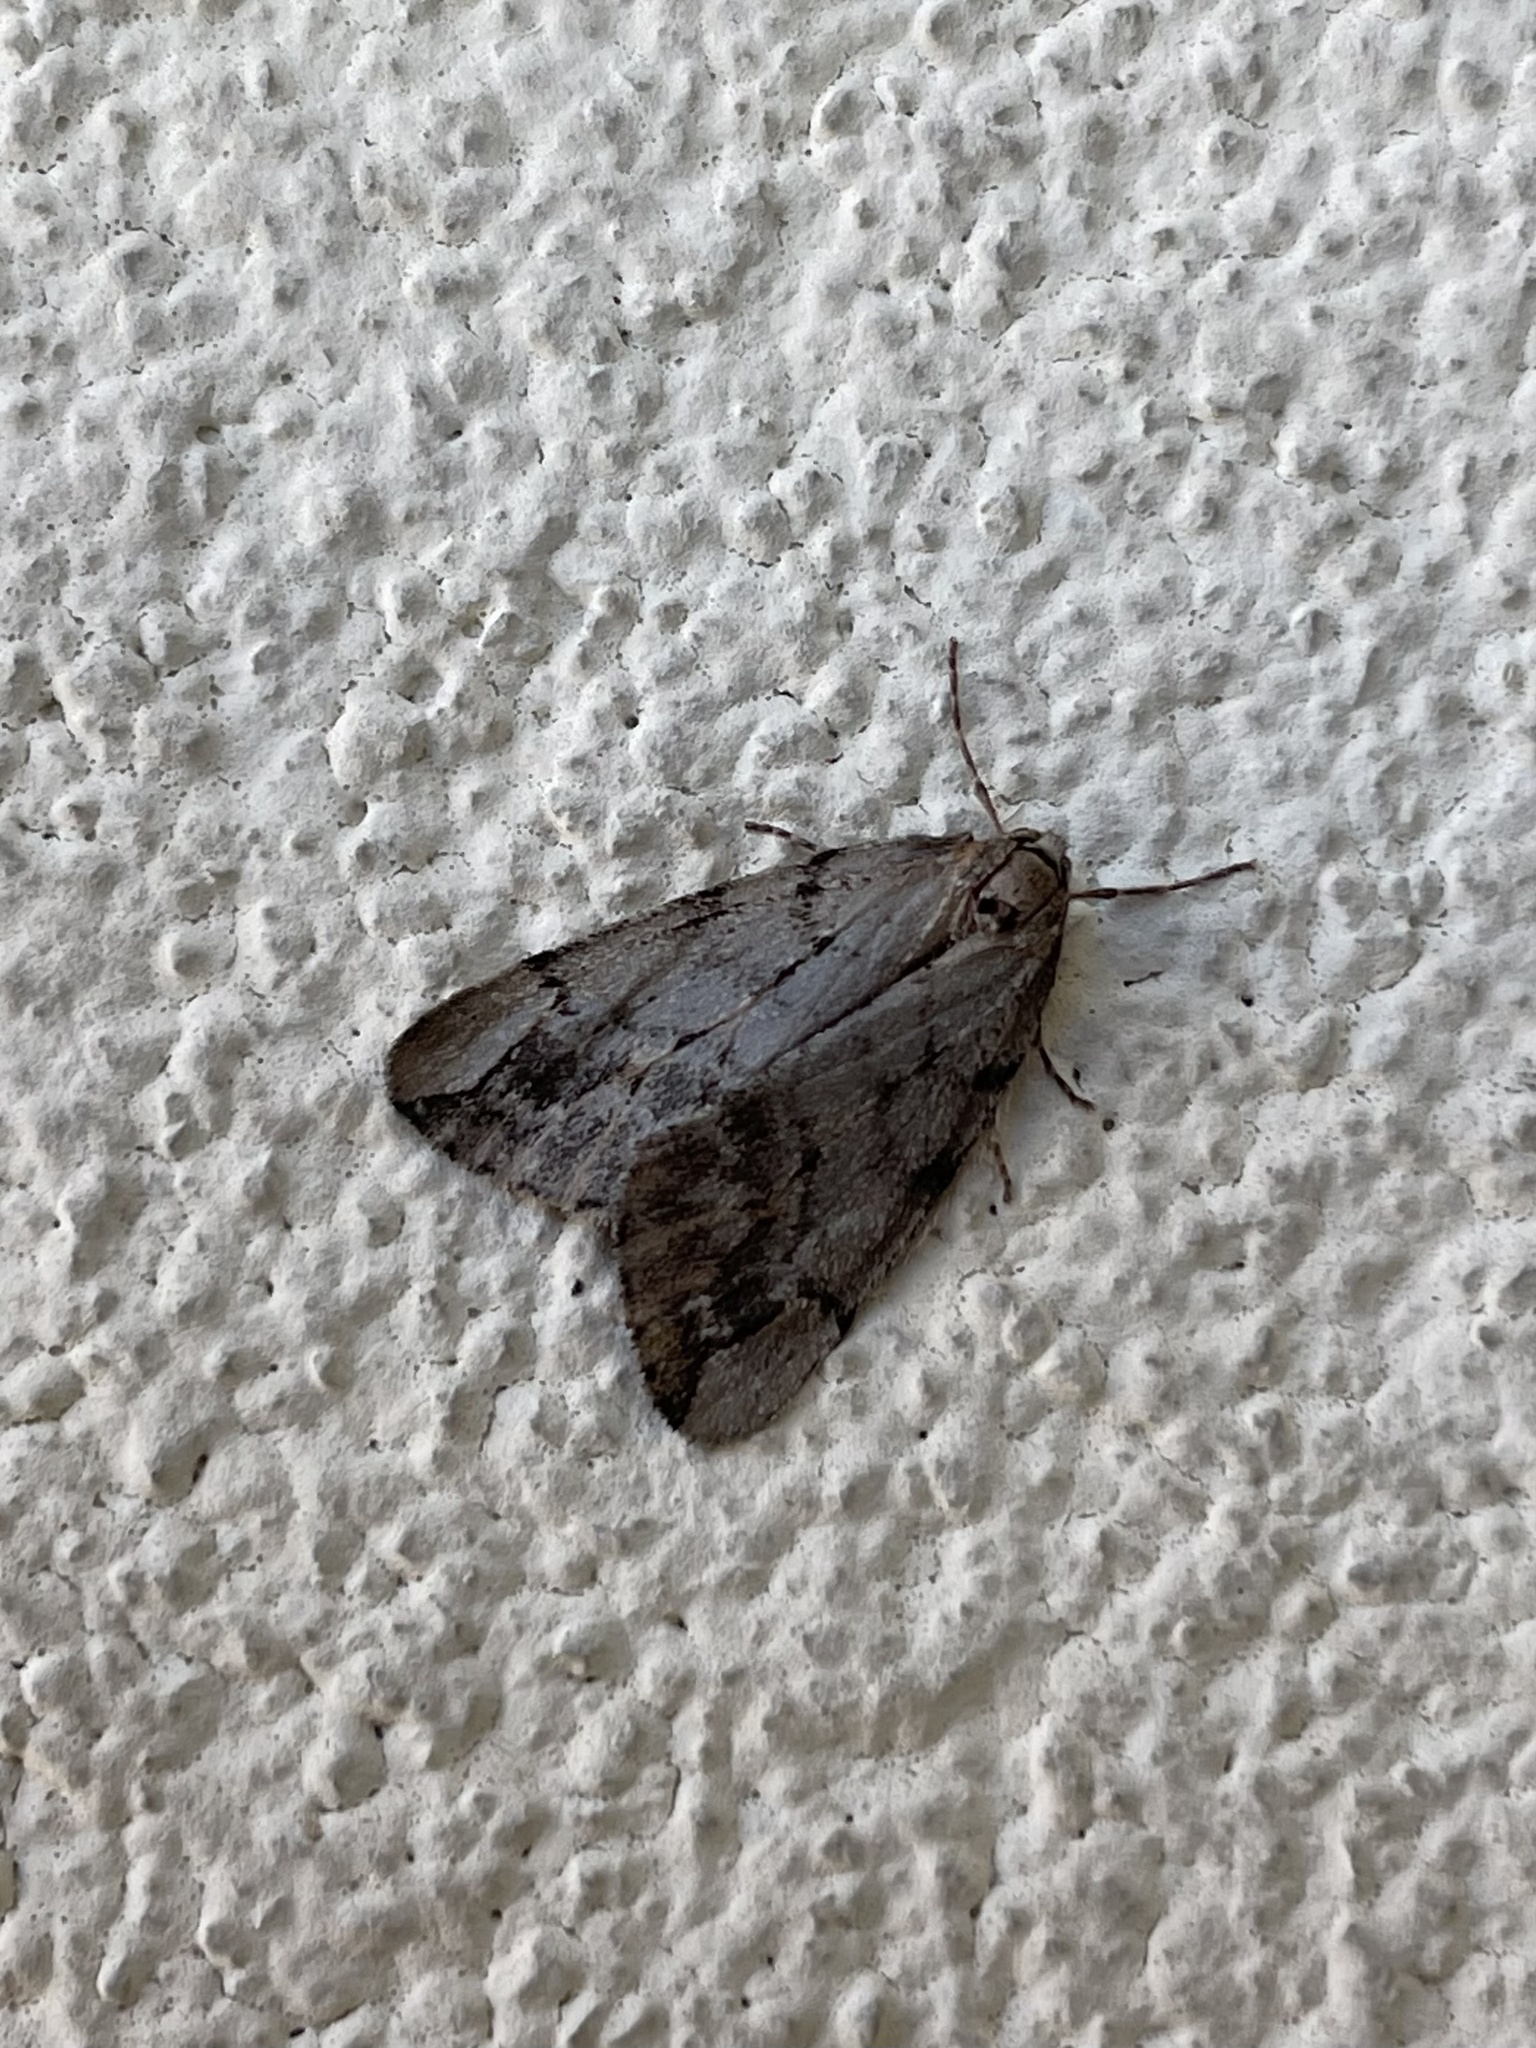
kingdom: Animalia
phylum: Arthropoda
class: Insecta
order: Lepidoptera
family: Geometridae
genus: Paleacrita
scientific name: Paleacrita vernata
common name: Spring cankerworm
